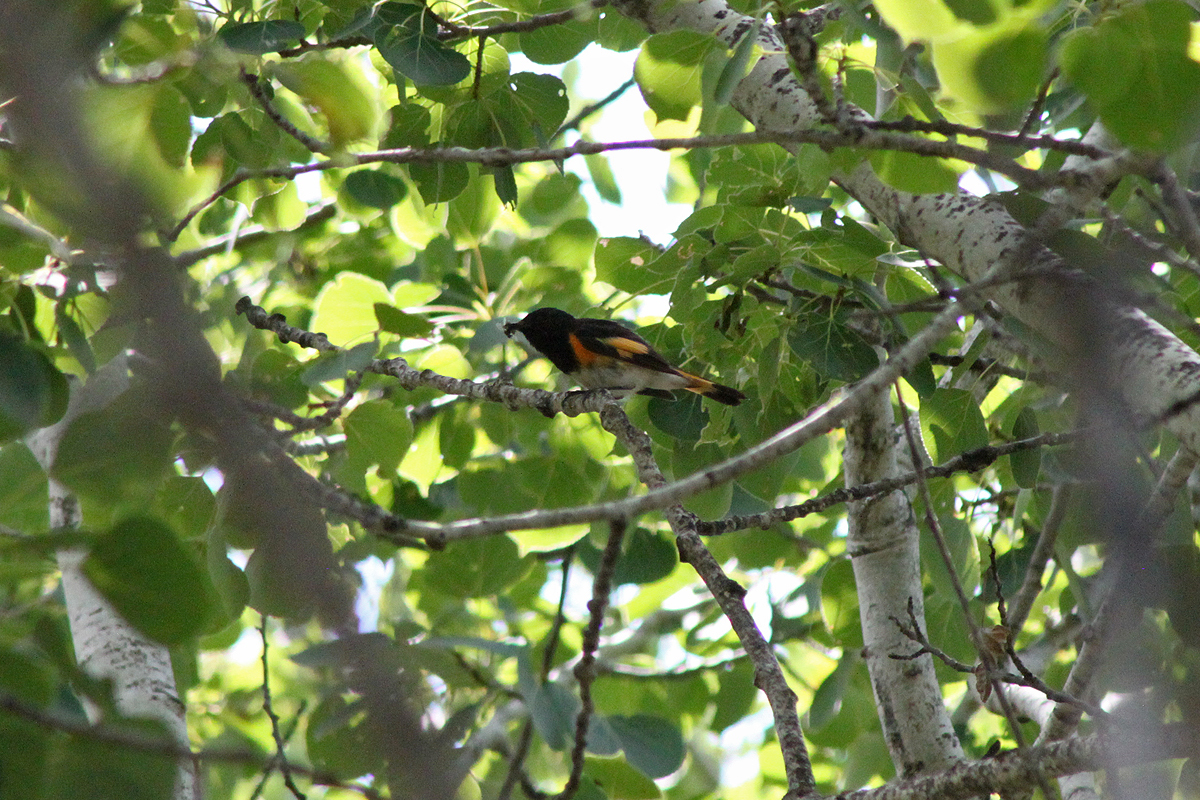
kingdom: Animalia
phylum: Chordata
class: Aves
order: Passeriformes
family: Parulidae
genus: Setophaga
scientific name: Setophaga ruticilla
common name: American redstart
